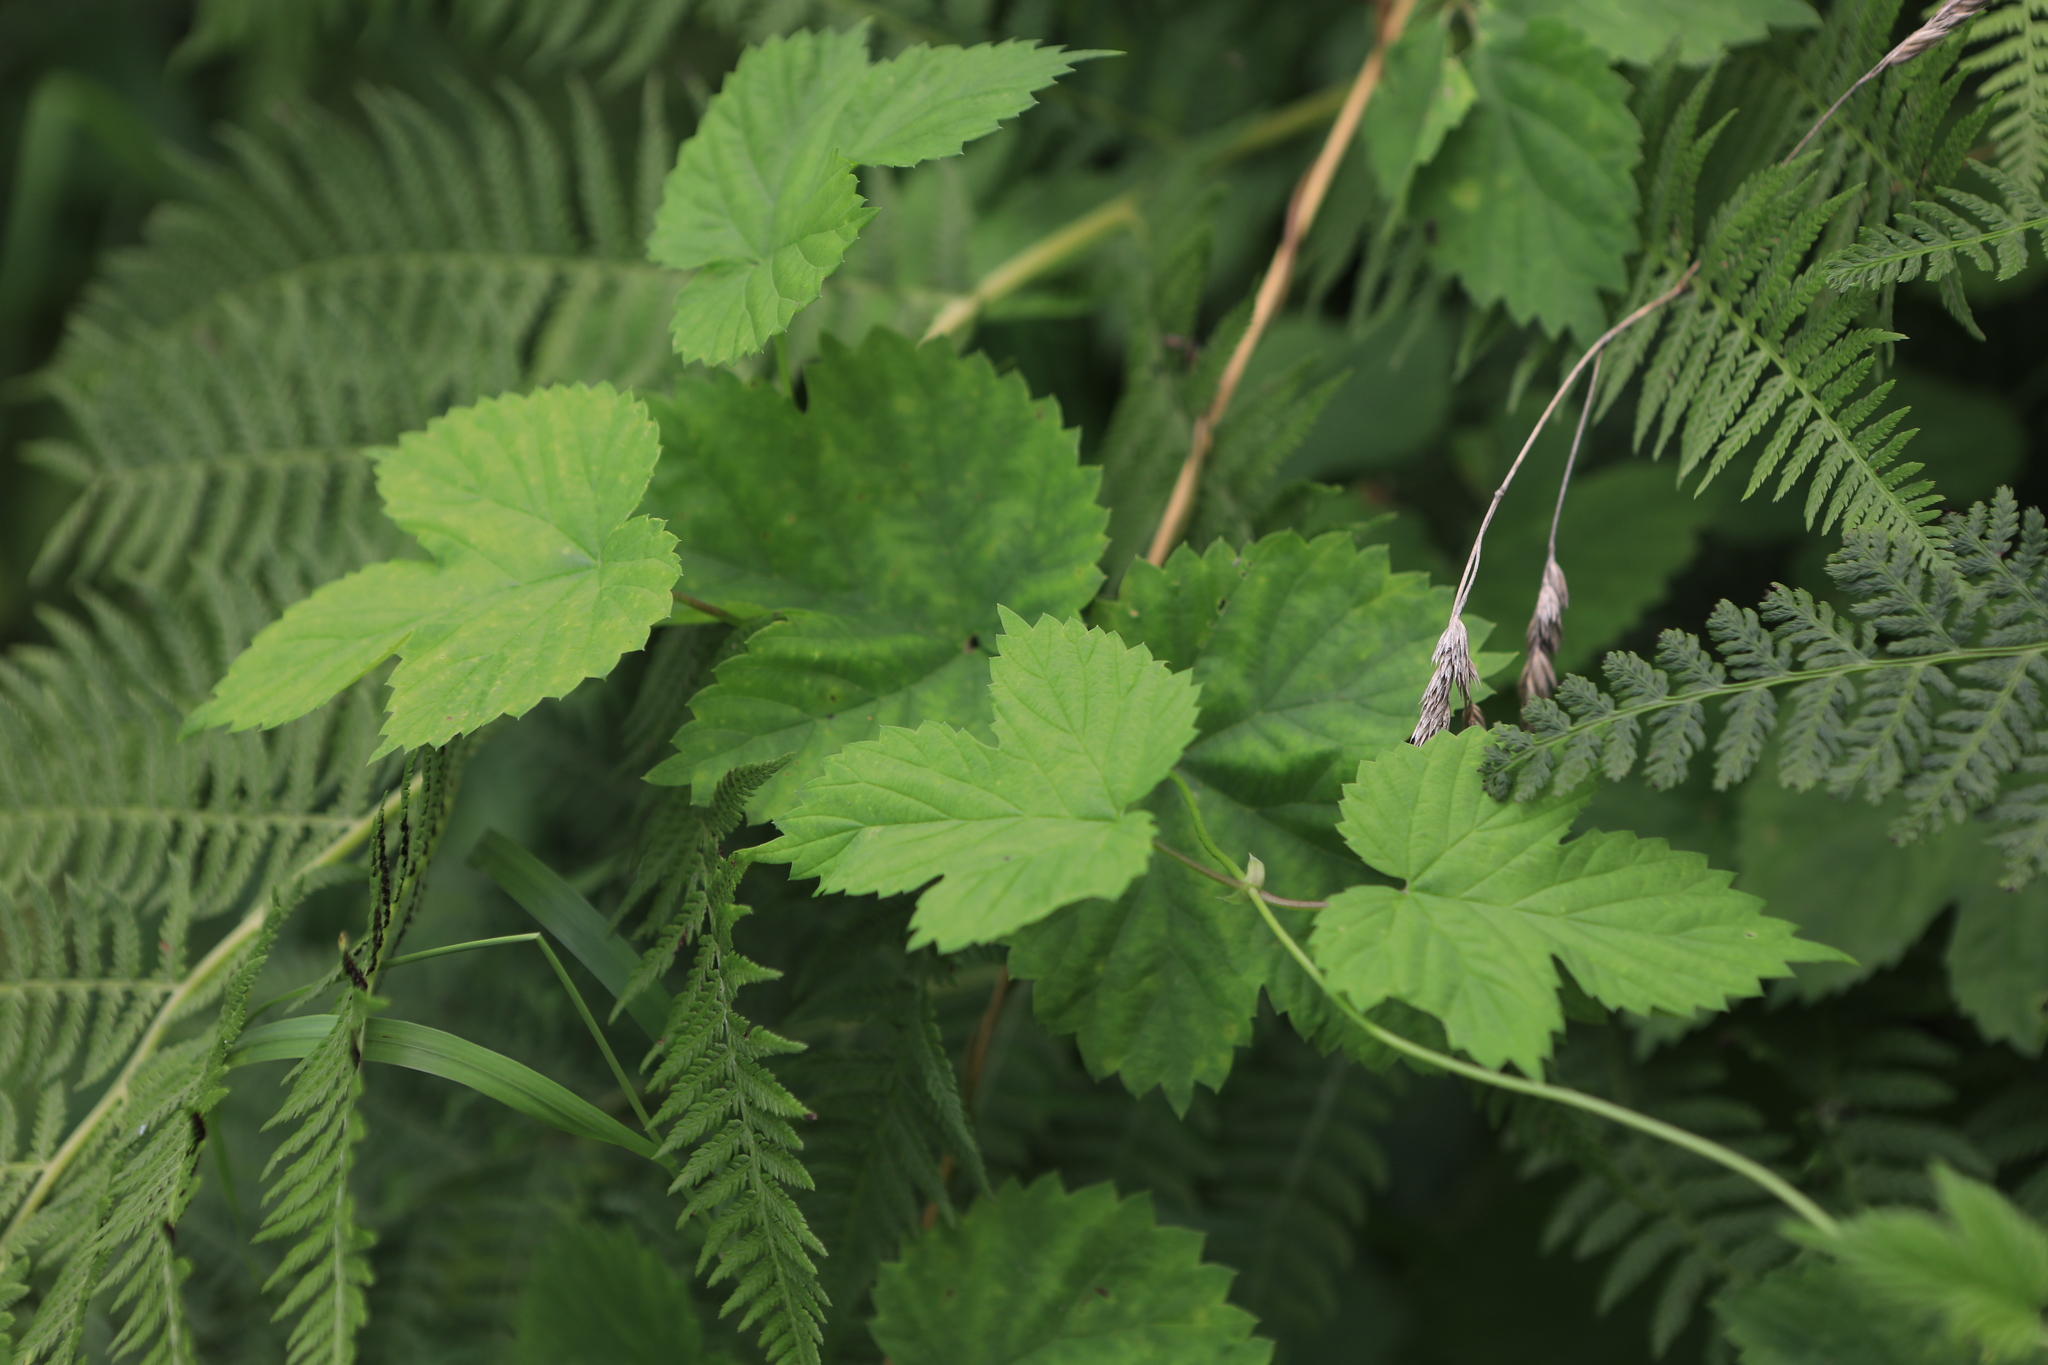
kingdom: Plantae
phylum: Tracheophyta
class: Magnoliopsida
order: Rosales
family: Cannabaceae
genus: Humulus
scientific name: Humulus lupulus
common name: Hop
